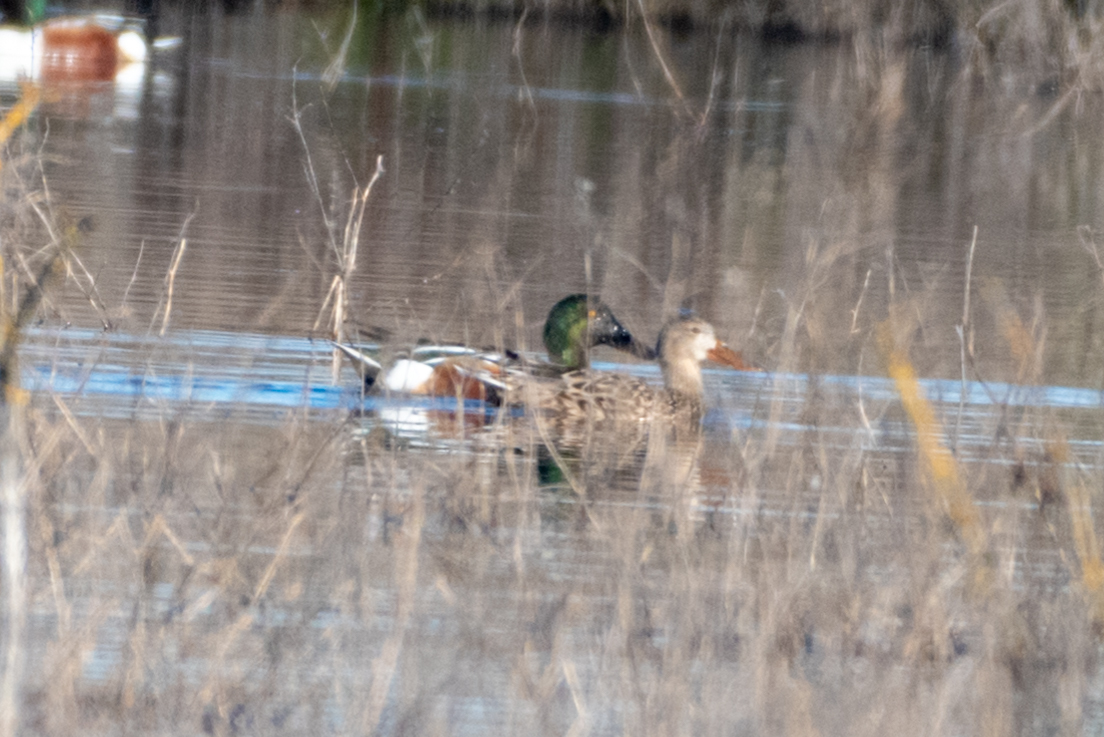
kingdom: Animalia
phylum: Chordata
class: Aves
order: Anseriformes
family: Anatidae
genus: Spatula
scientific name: Spatula clypeata
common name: Northern shoveler
